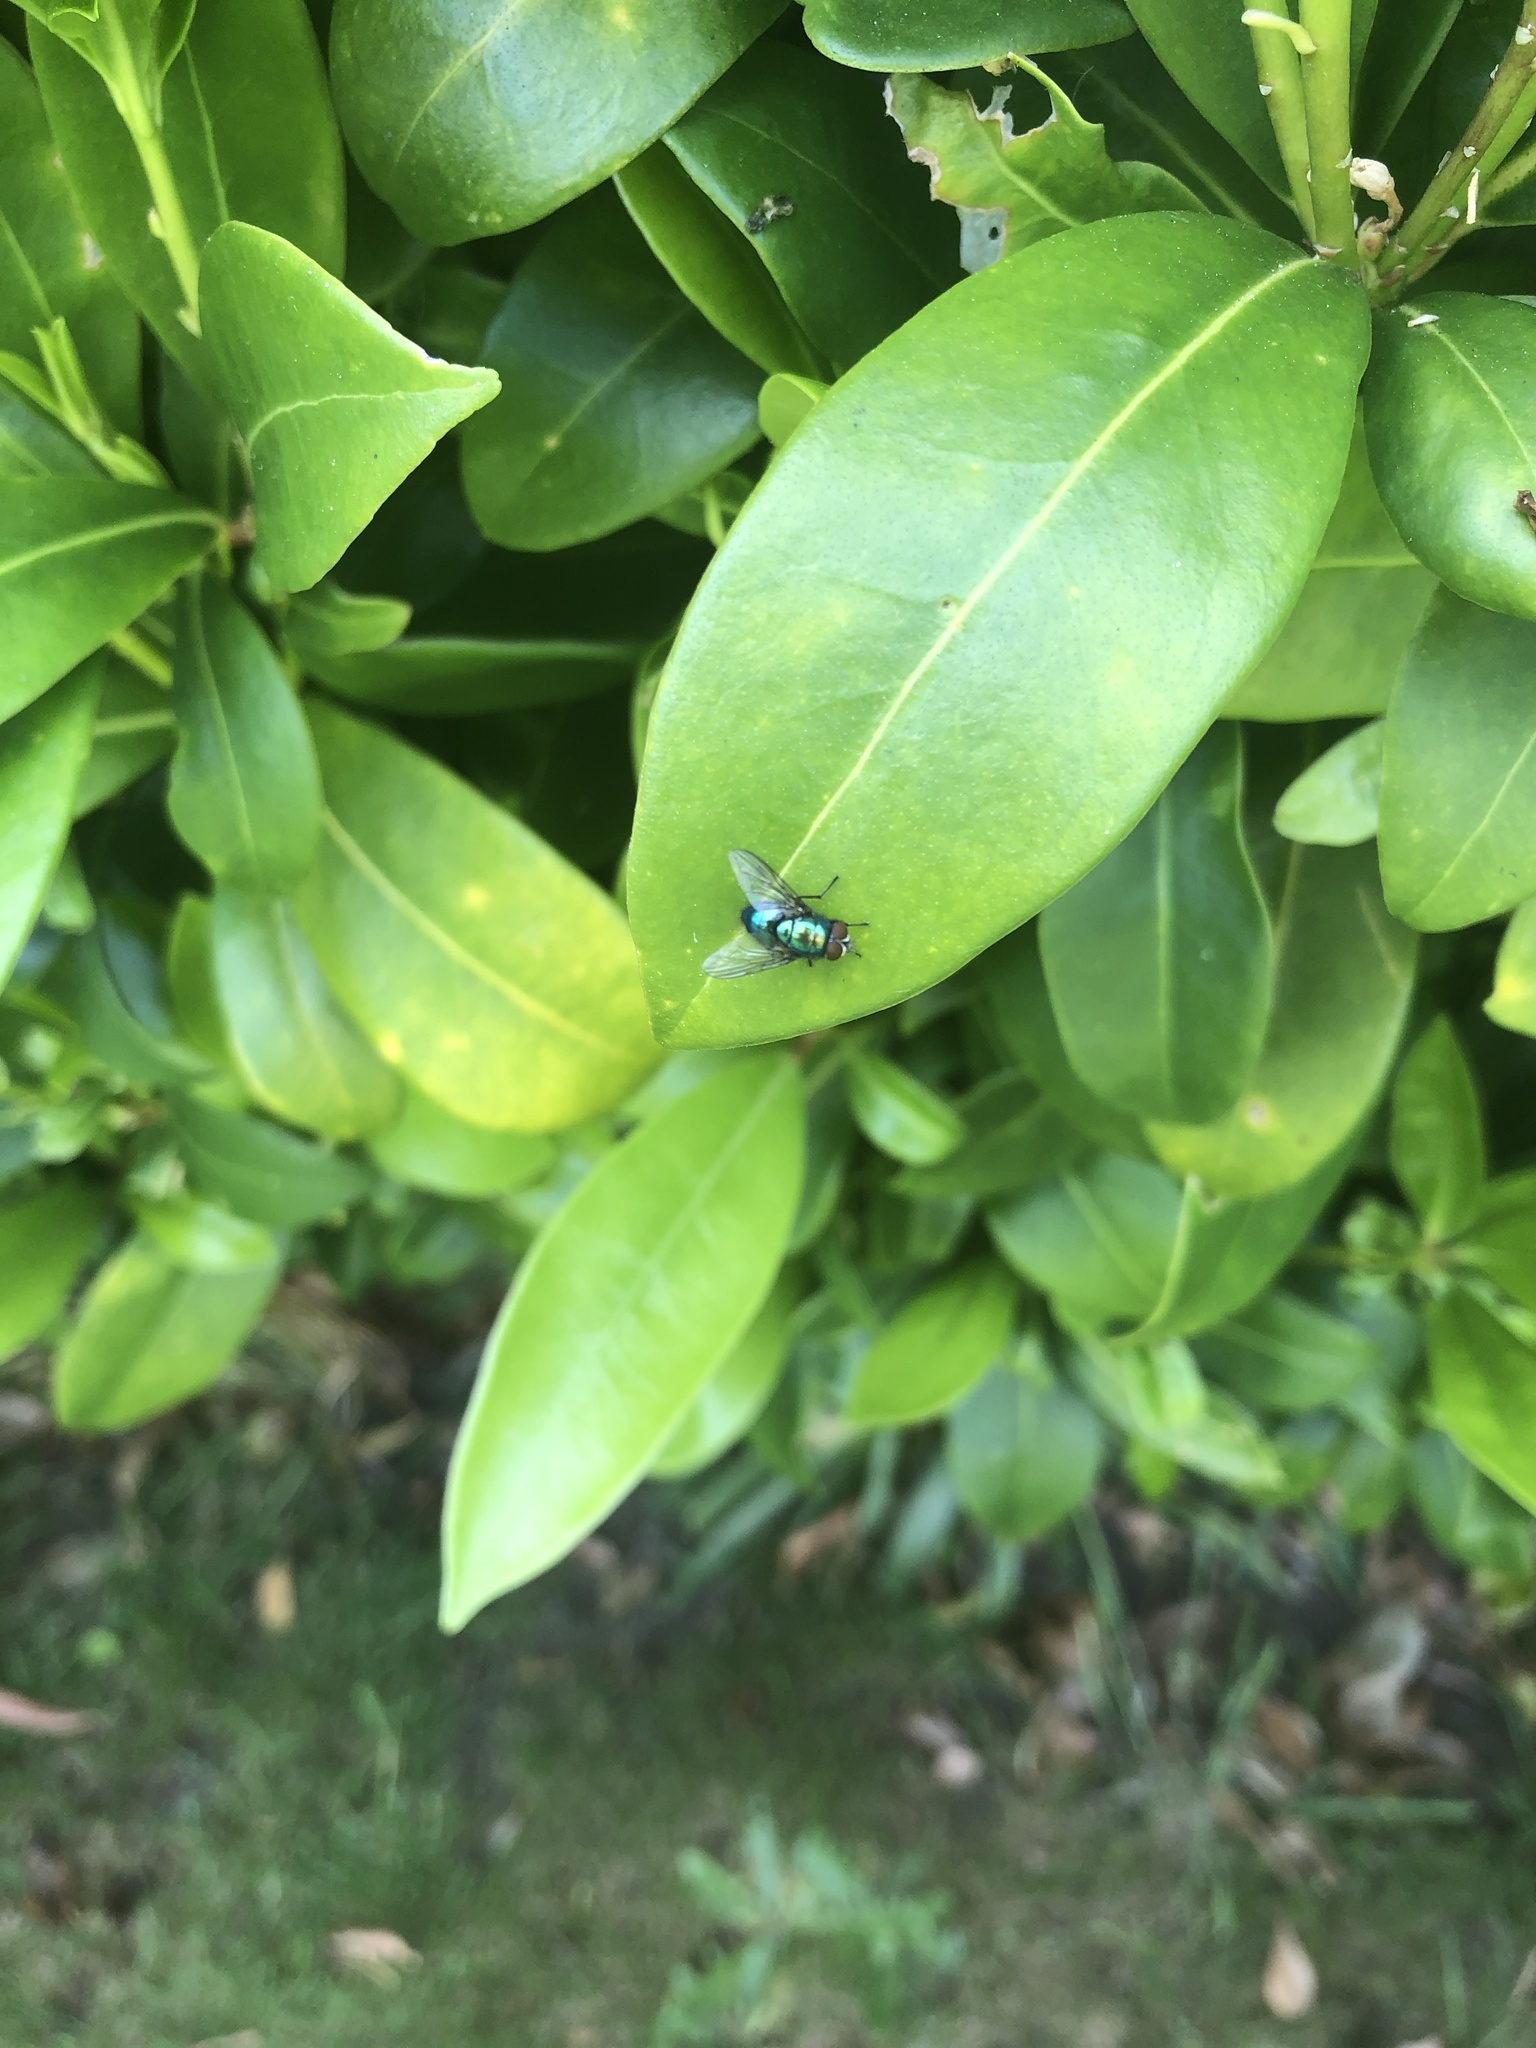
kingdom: Animalia
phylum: Arthropoda
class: Insecta
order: Diptera
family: Calliphoridae
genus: Lucilia
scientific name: Lucilia
